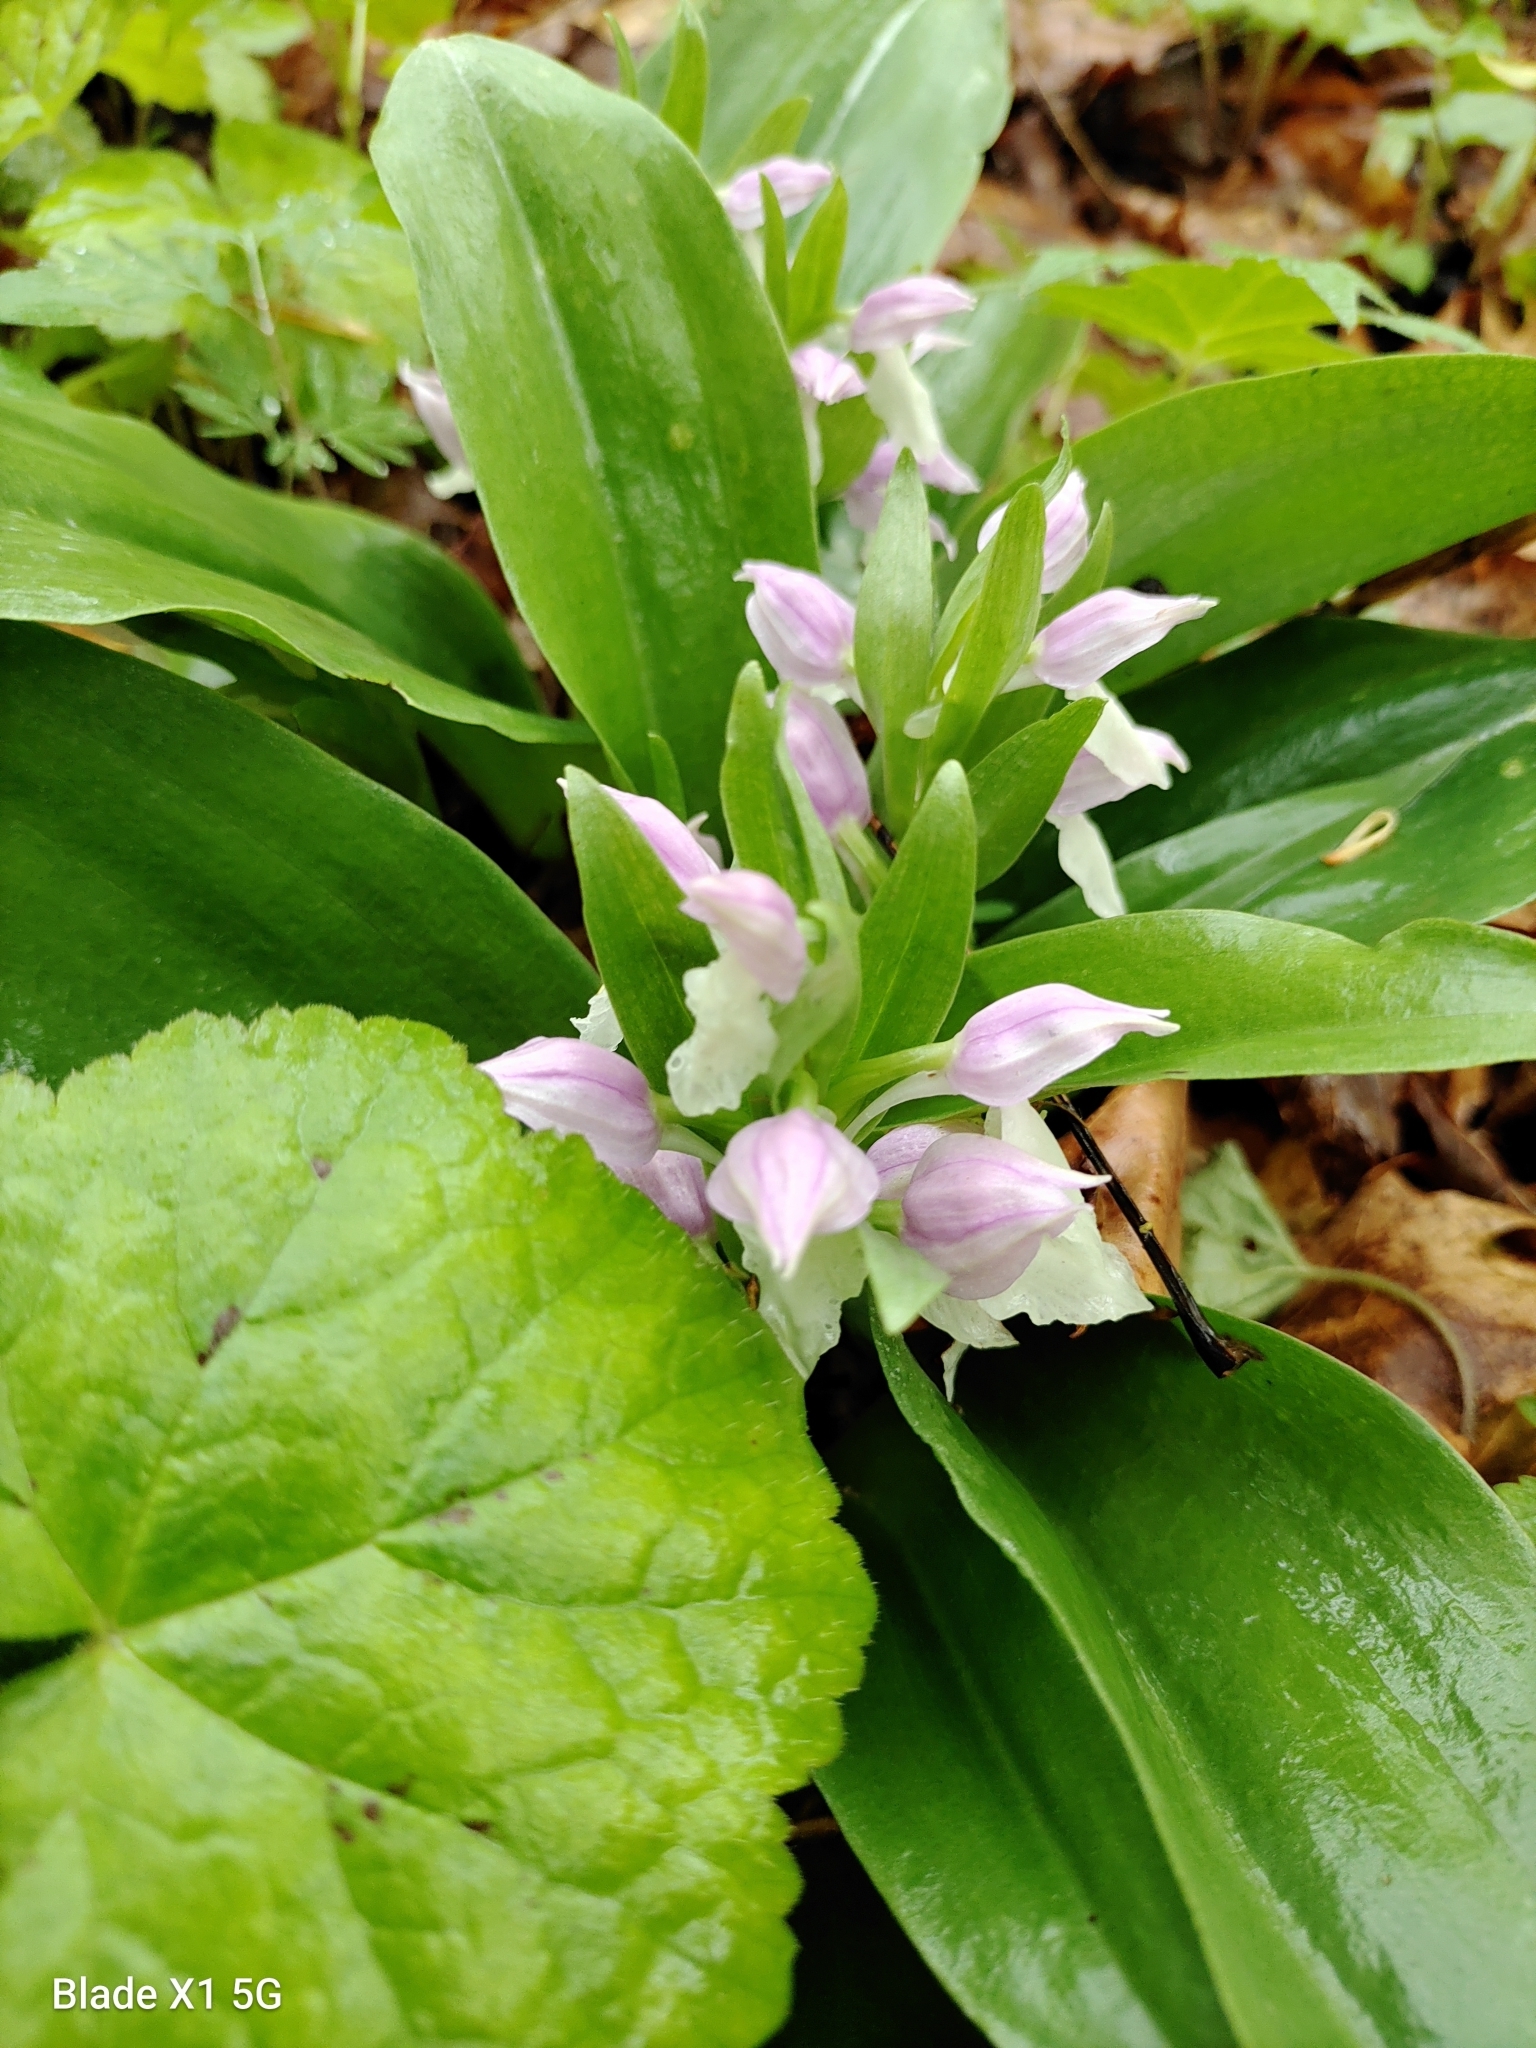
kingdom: Plantae
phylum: Tracheophyta
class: Liliopsida
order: Asparagales
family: Orchidaceae
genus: Galearis
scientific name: Galearis spectabilis
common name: Purple-hooded orchis
